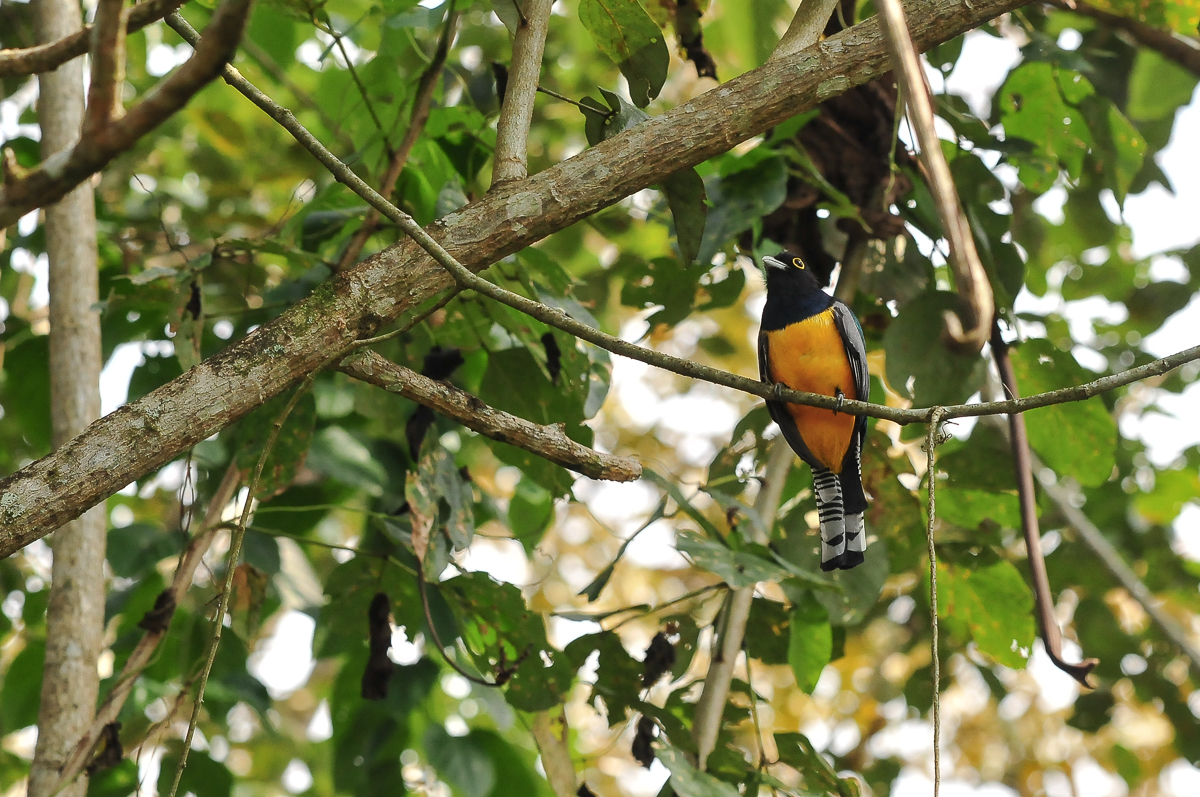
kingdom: Animalia
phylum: Chordata
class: Aves
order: Trogoniformes
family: Trogonidae
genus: Trogon
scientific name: Trogon caligatus
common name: Gartered trogon
